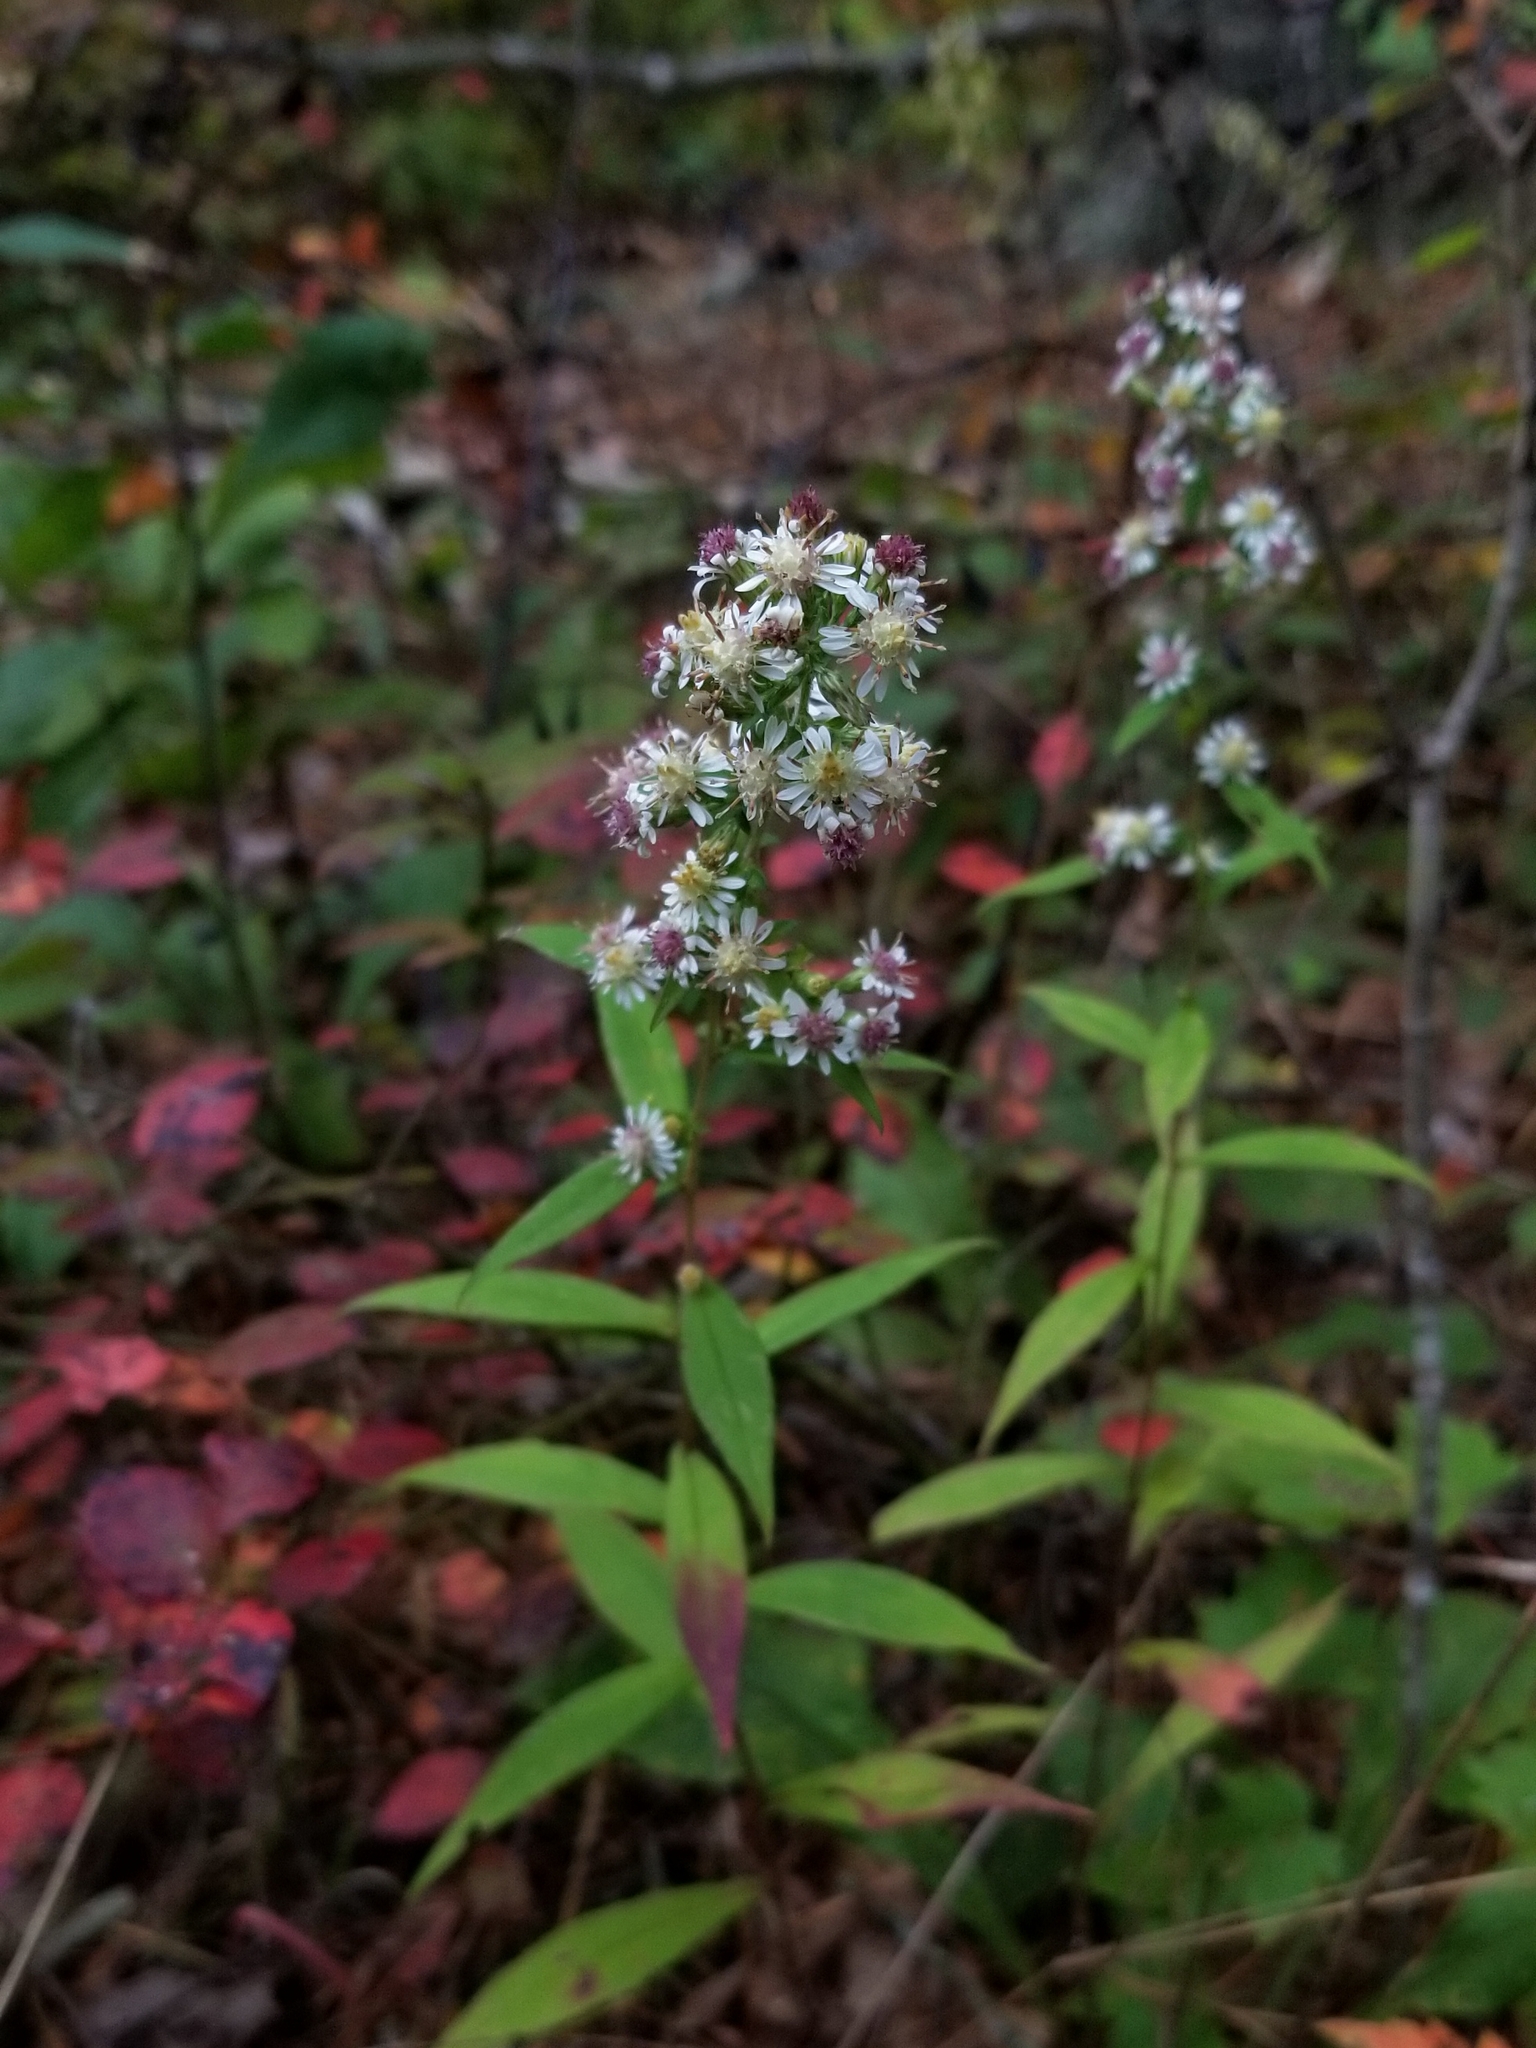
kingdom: Plantae
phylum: Tracheophyta
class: Magnoliopsida
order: Asterales
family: Asteraceae
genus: Symphyotrichum
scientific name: Symphyotrichum lateriflorum
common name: Calico aster
